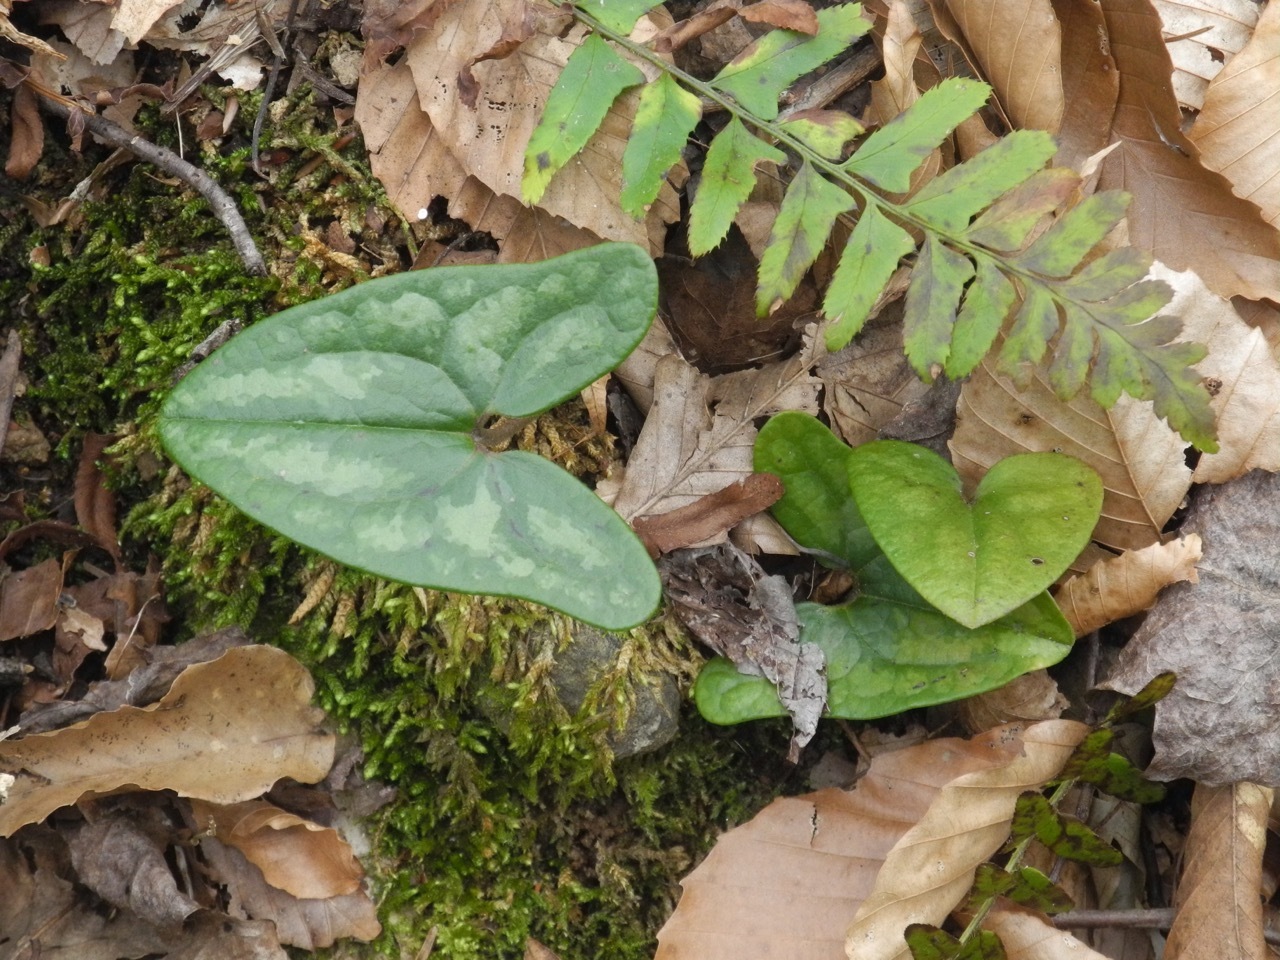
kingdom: Plantae
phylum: Tracheophyta
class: Magnoliopsida
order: Piperales
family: Aristolochiaceae
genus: Hexastylis
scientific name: Hexastylis arifolia
